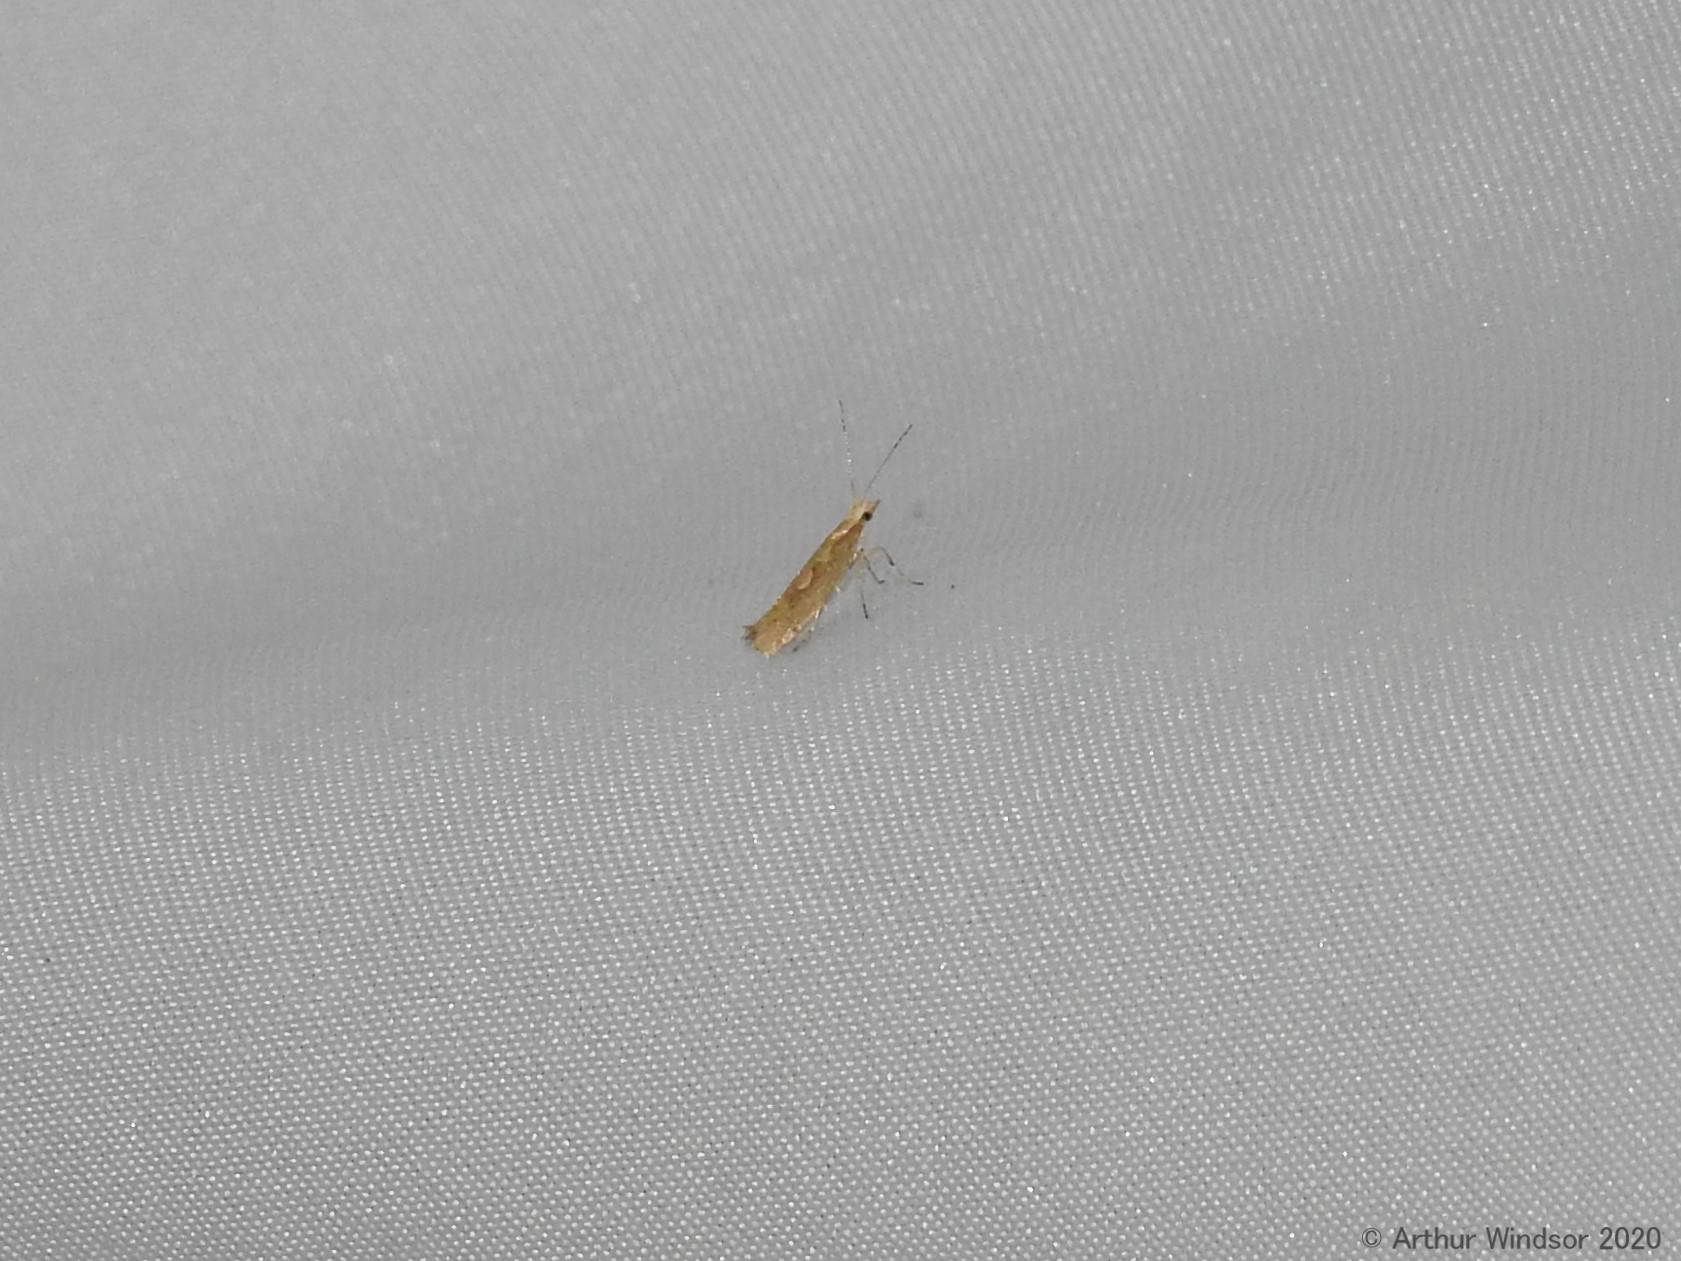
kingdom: Animalia
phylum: Arthropoda
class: Insecta
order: Lepidoptera
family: Plutellidae
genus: Plutella
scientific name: Plutella xylostella
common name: Diamond-back moth
